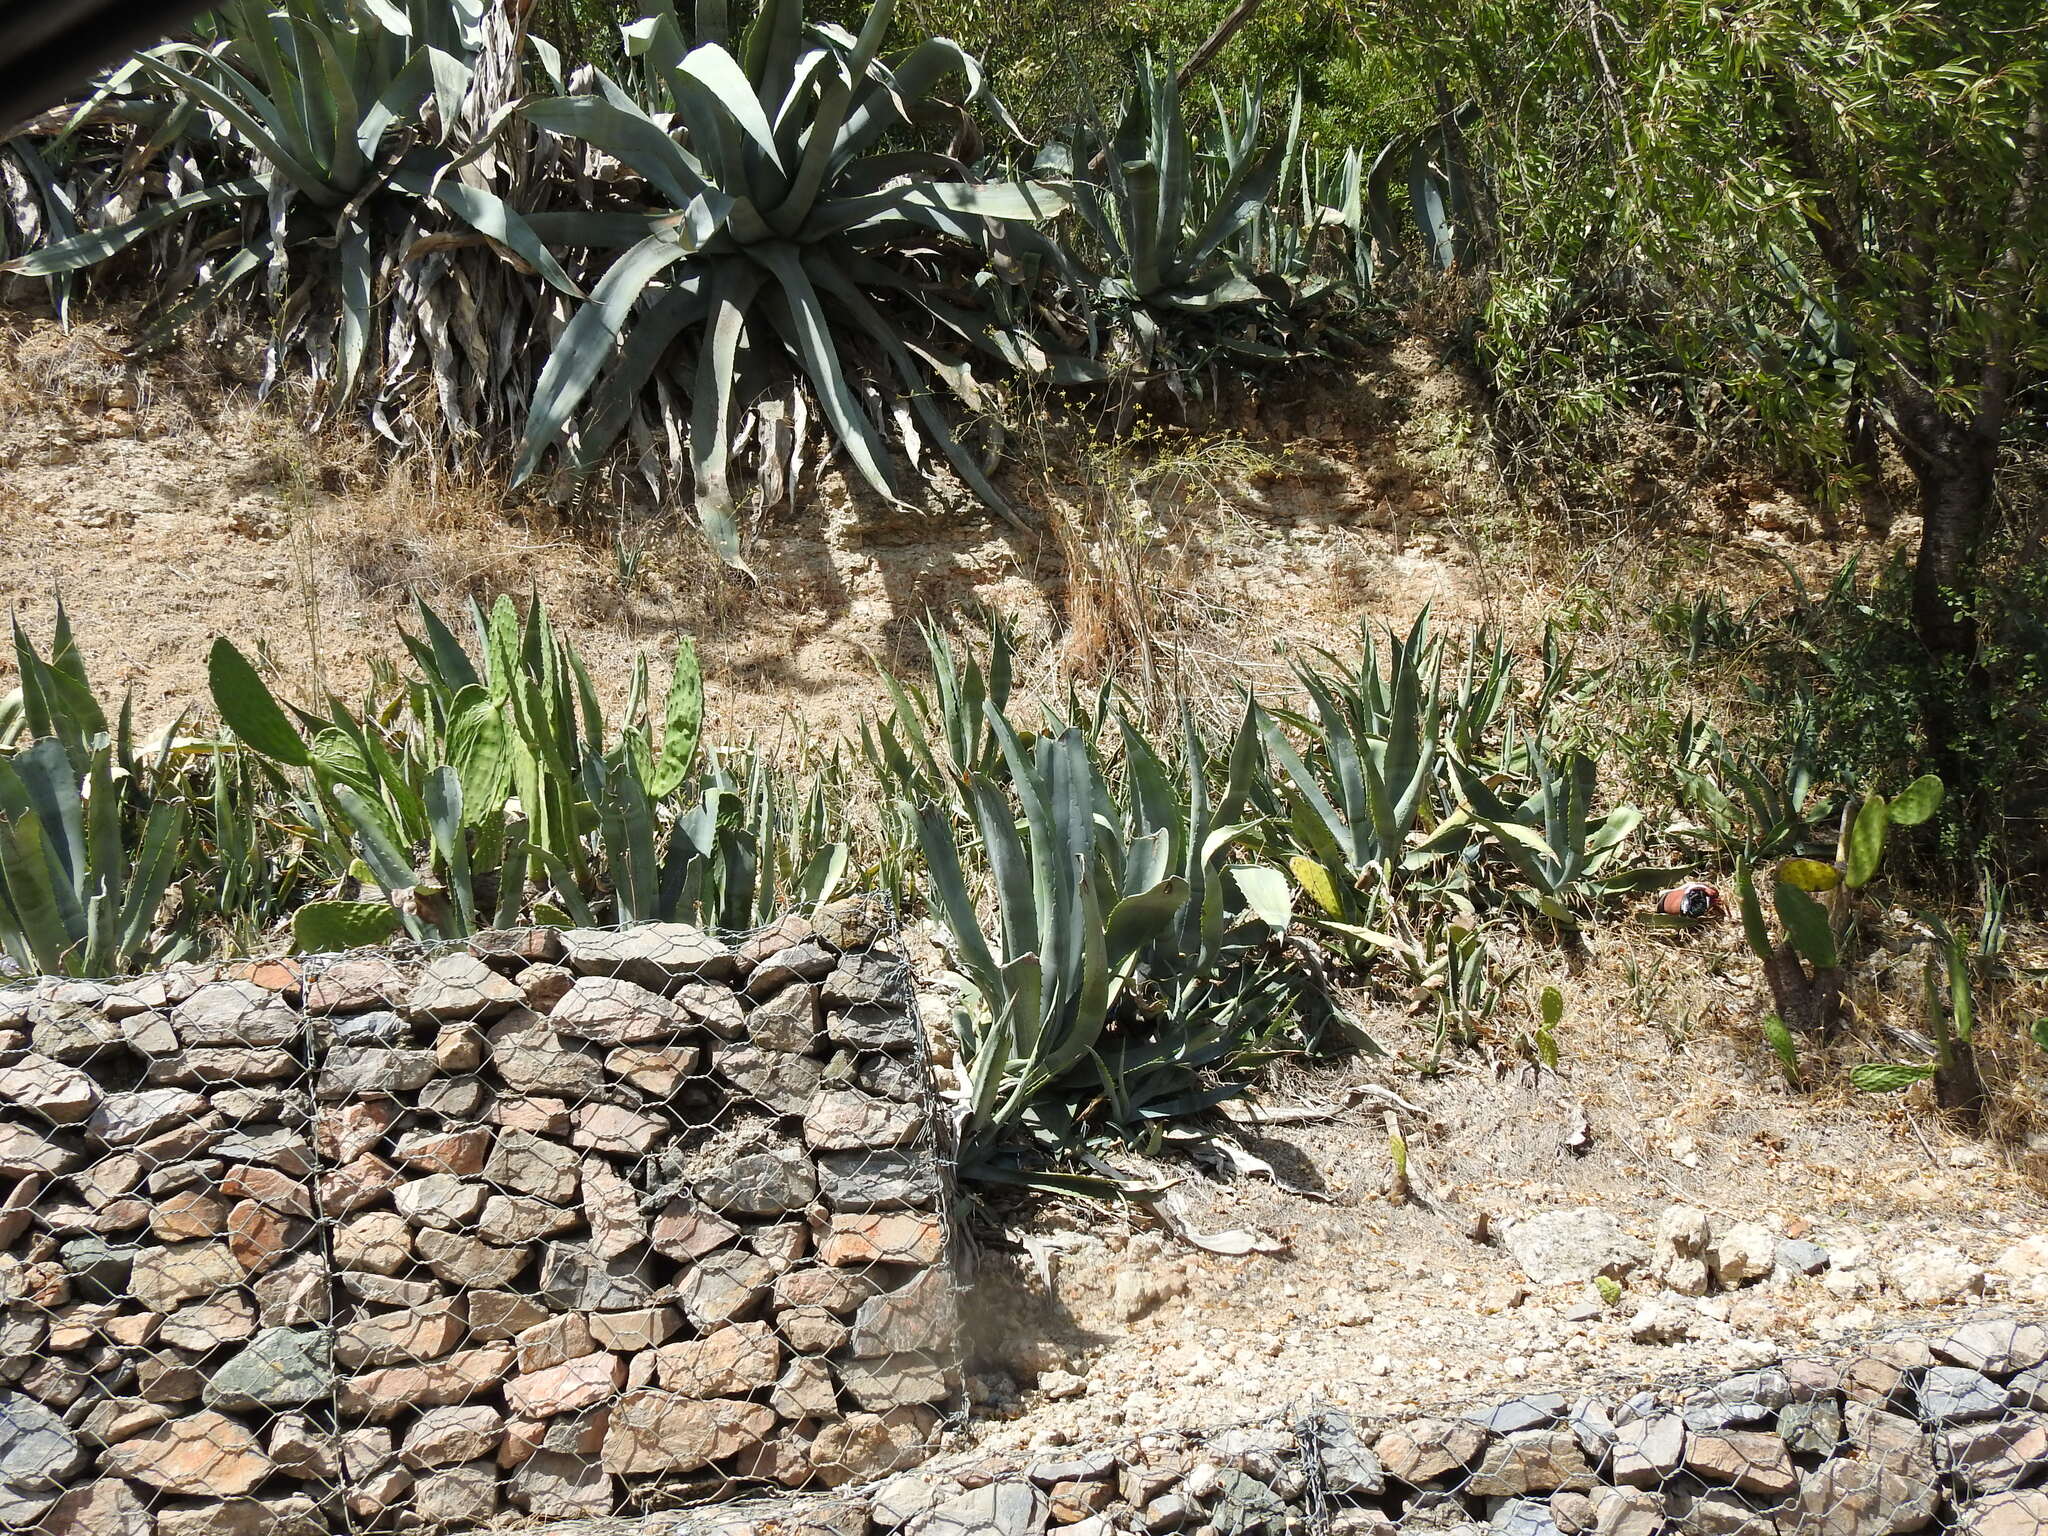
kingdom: Plantae
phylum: Tracheophyta
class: Liliopsida
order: Asparagales
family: Asparagaceae
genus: Agave
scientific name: Agave americana
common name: Centuryplant
